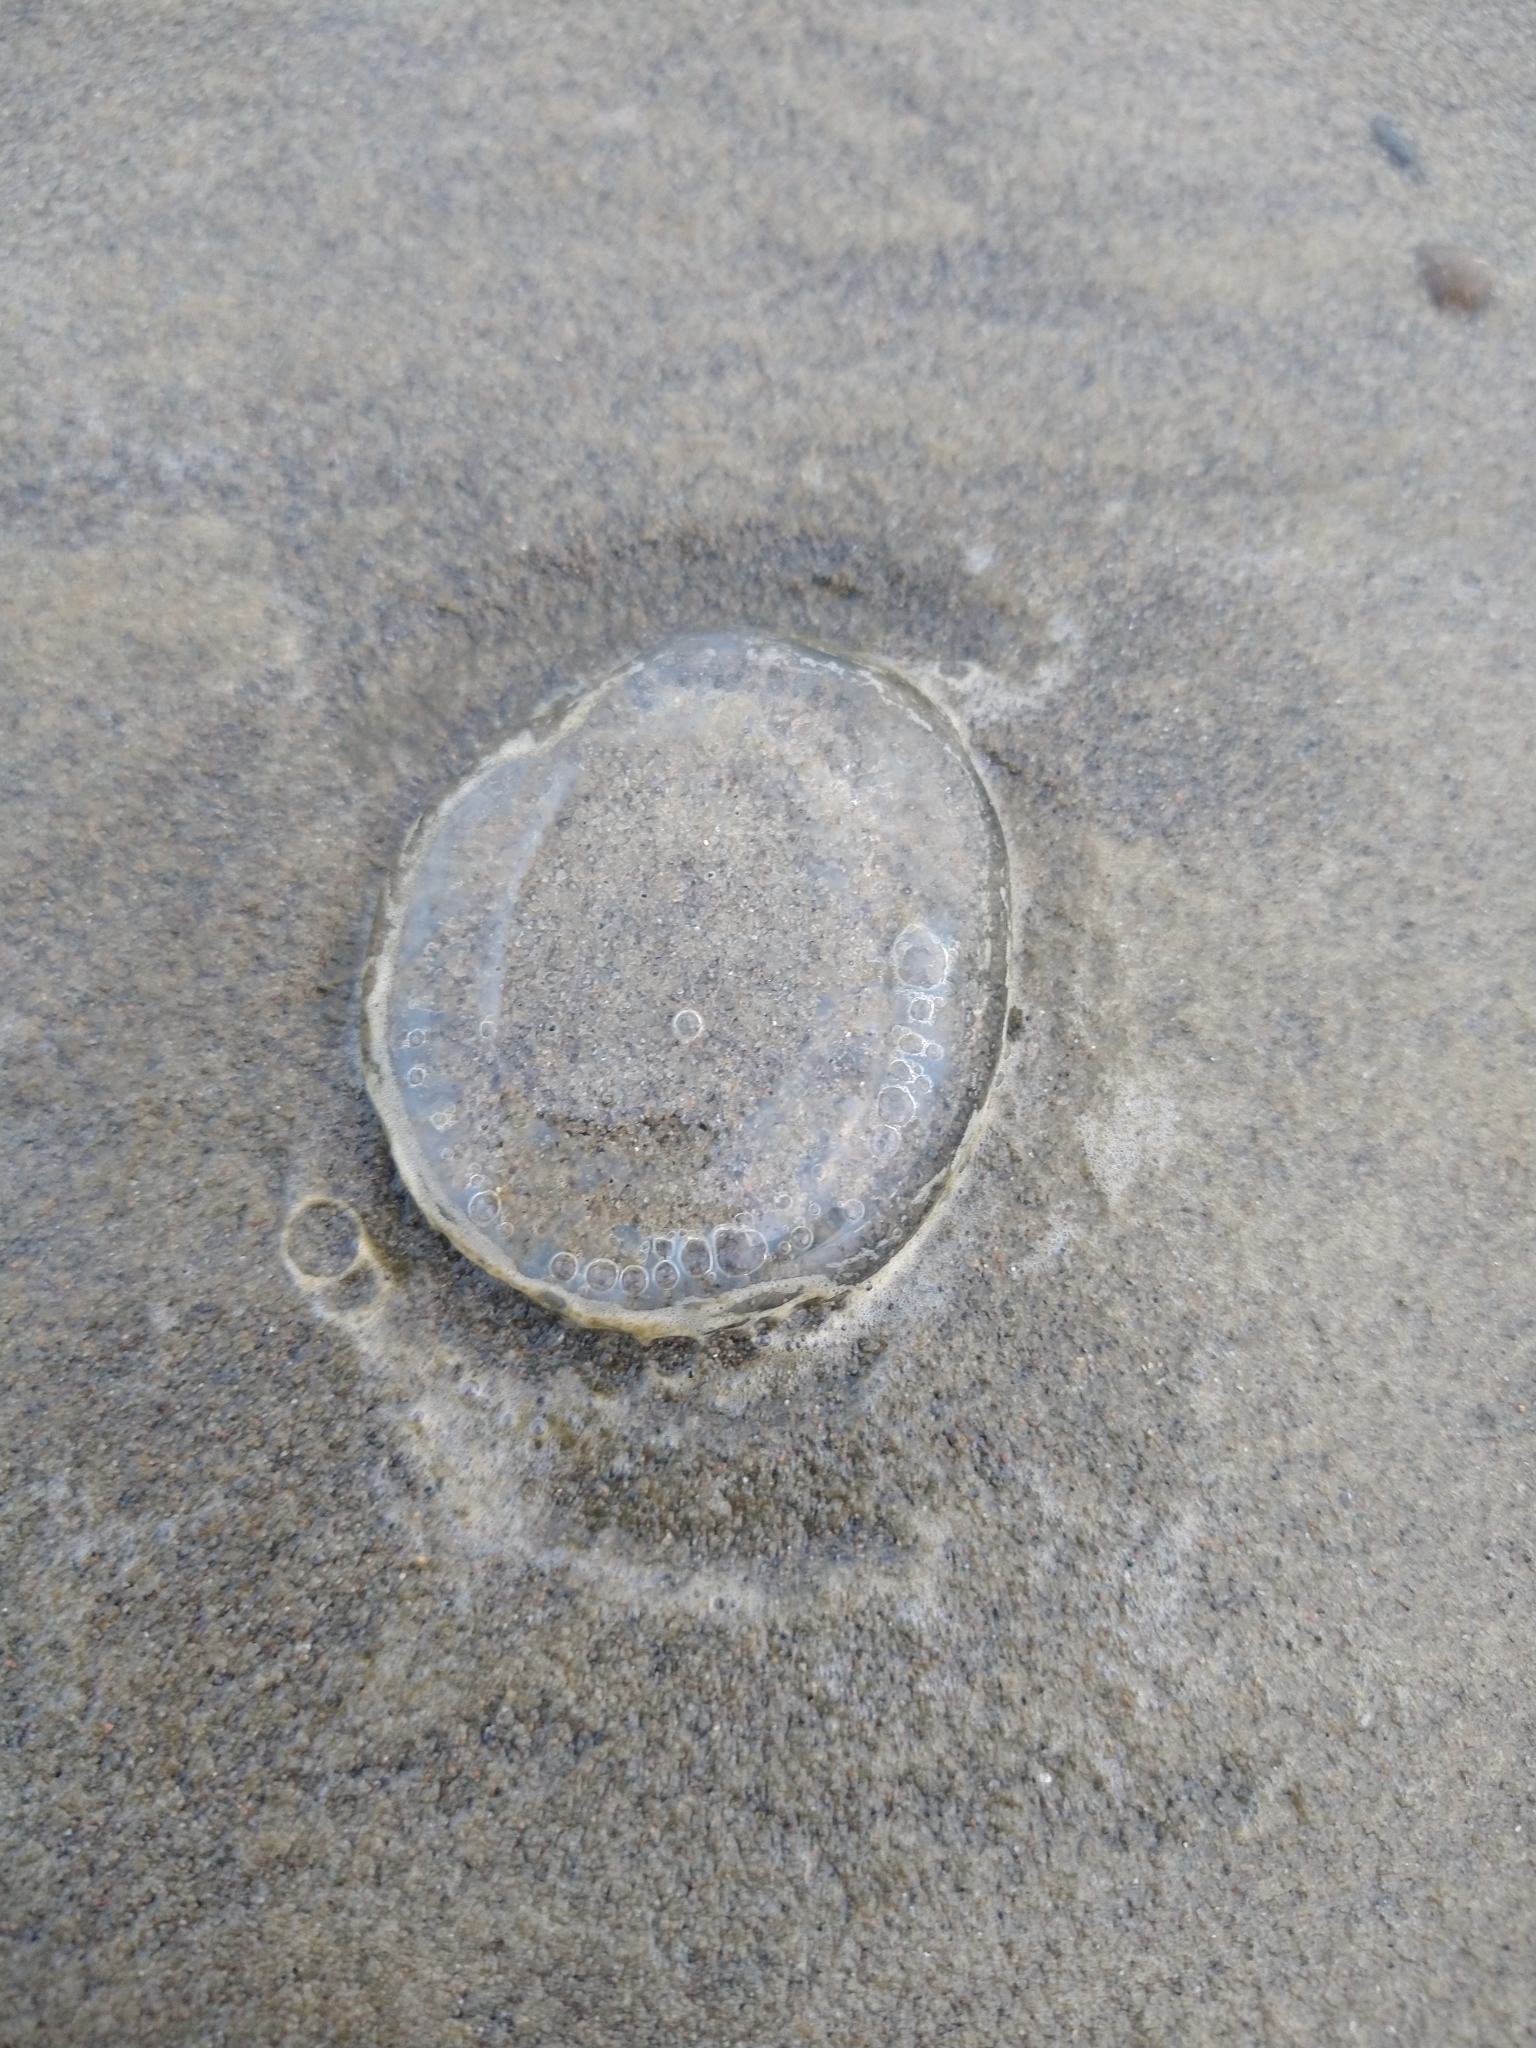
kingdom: Animalia
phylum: Cnidaria
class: Hydrozoa
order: Leptothecata
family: Aequoreidae
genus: Aequorea
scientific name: Aequorea victoria
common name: Water jellyfish
